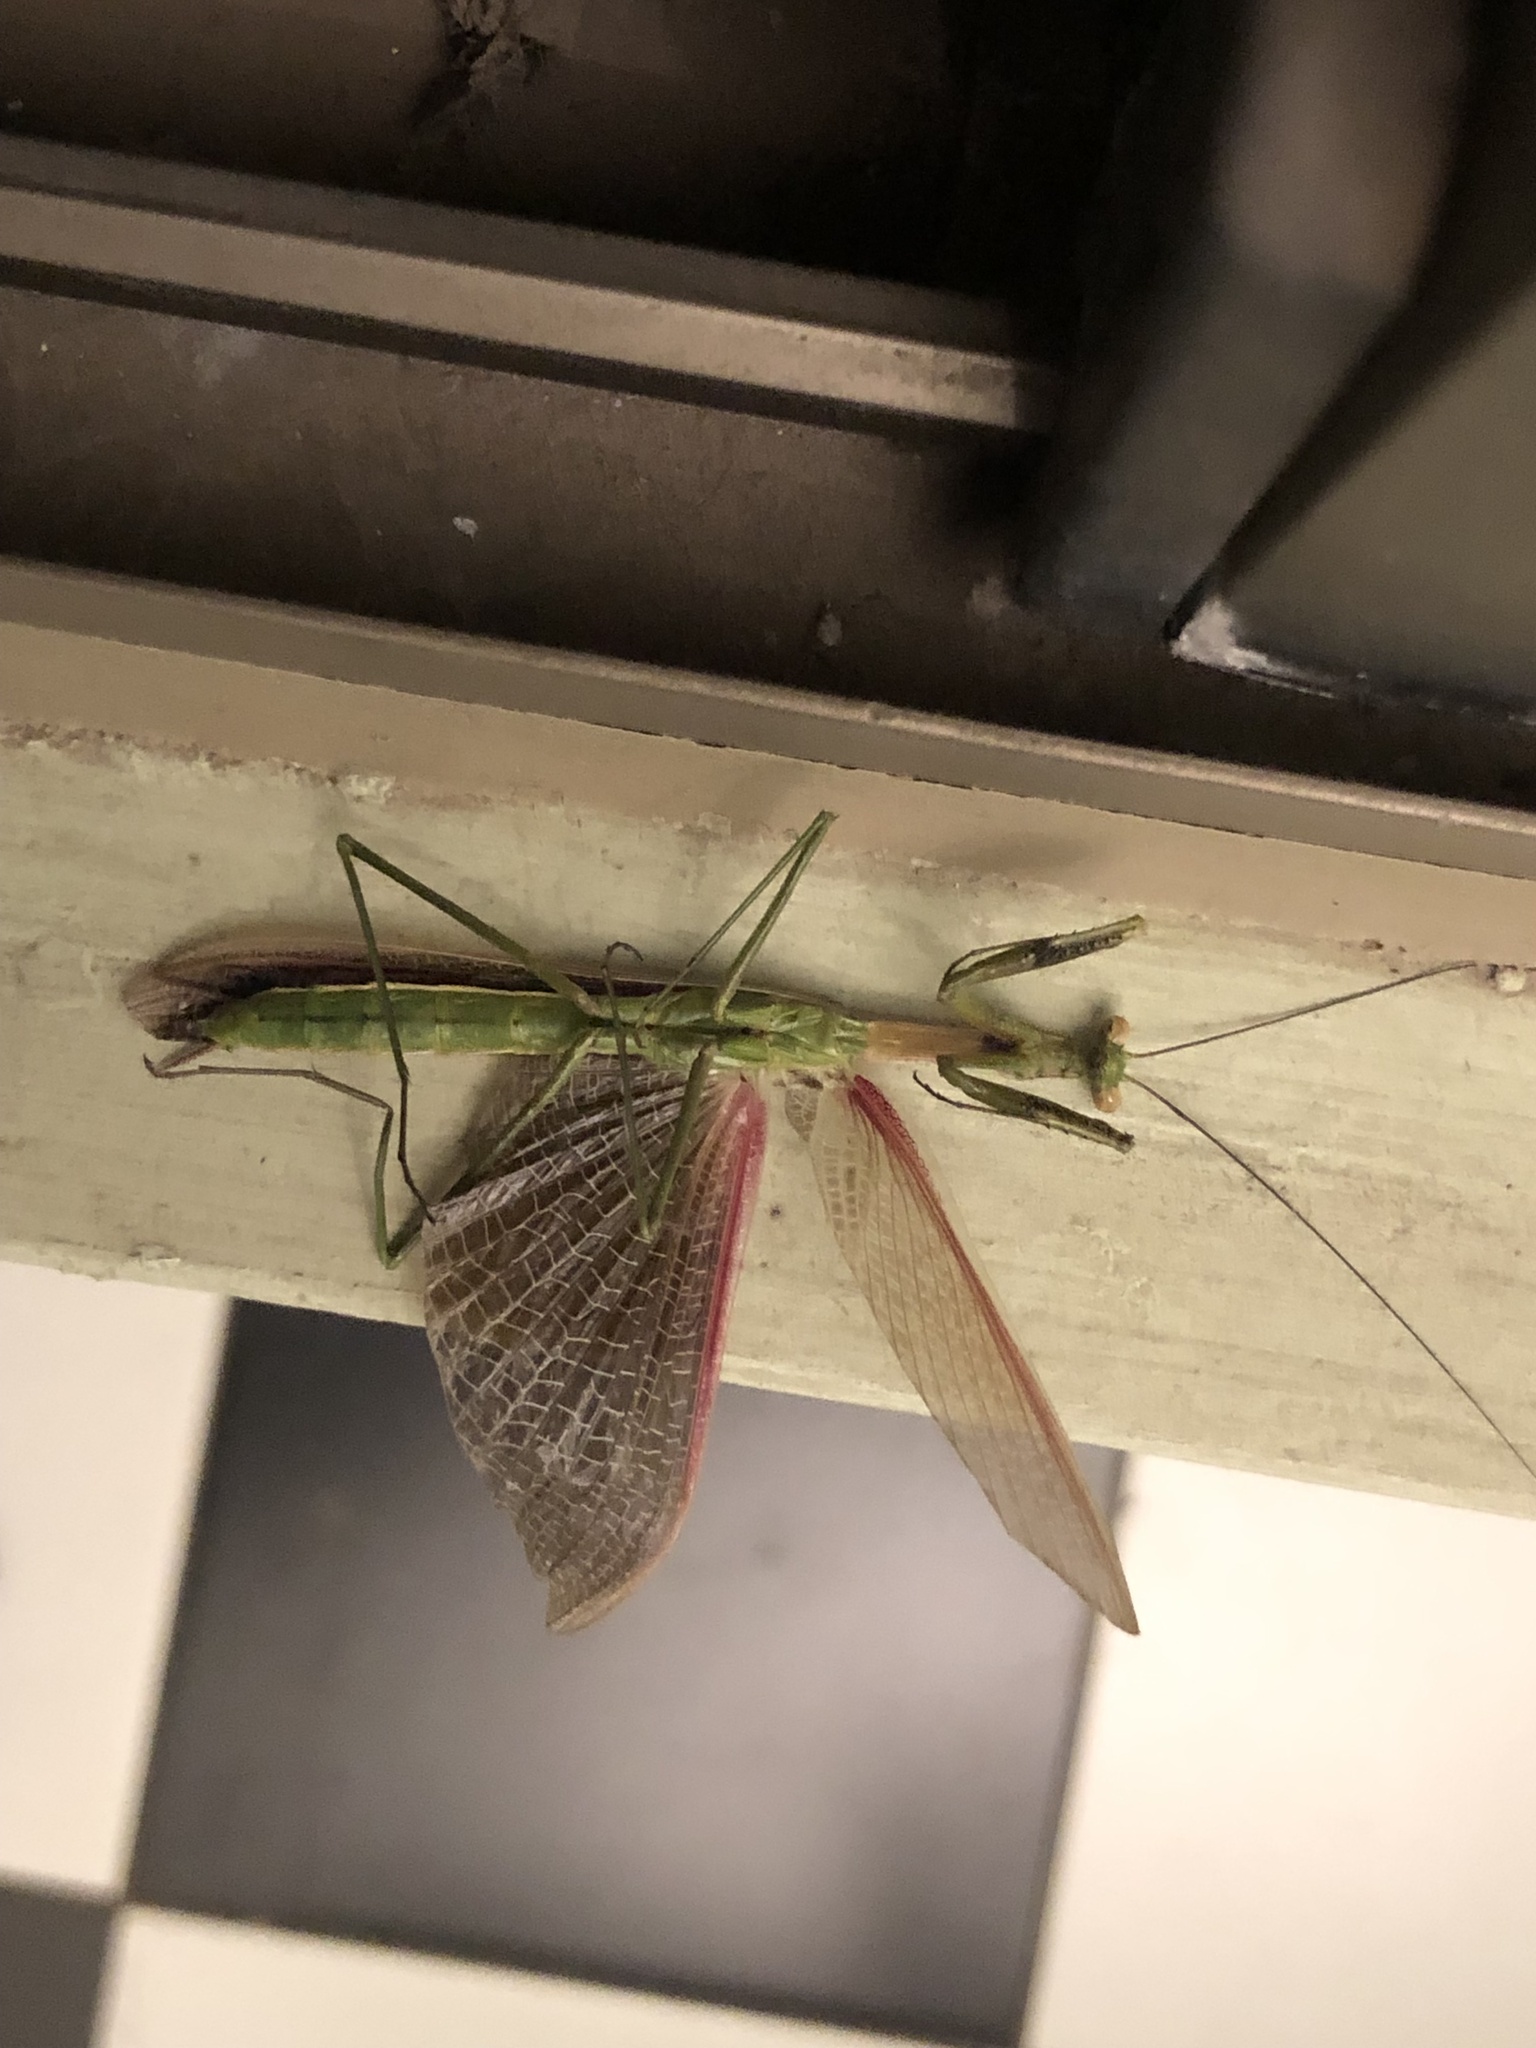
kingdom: Animalia
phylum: Arthropoda
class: Insecta
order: Mantodea
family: Coptopterygidae
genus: Coptopteryx
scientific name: Coptopteryx gayi
